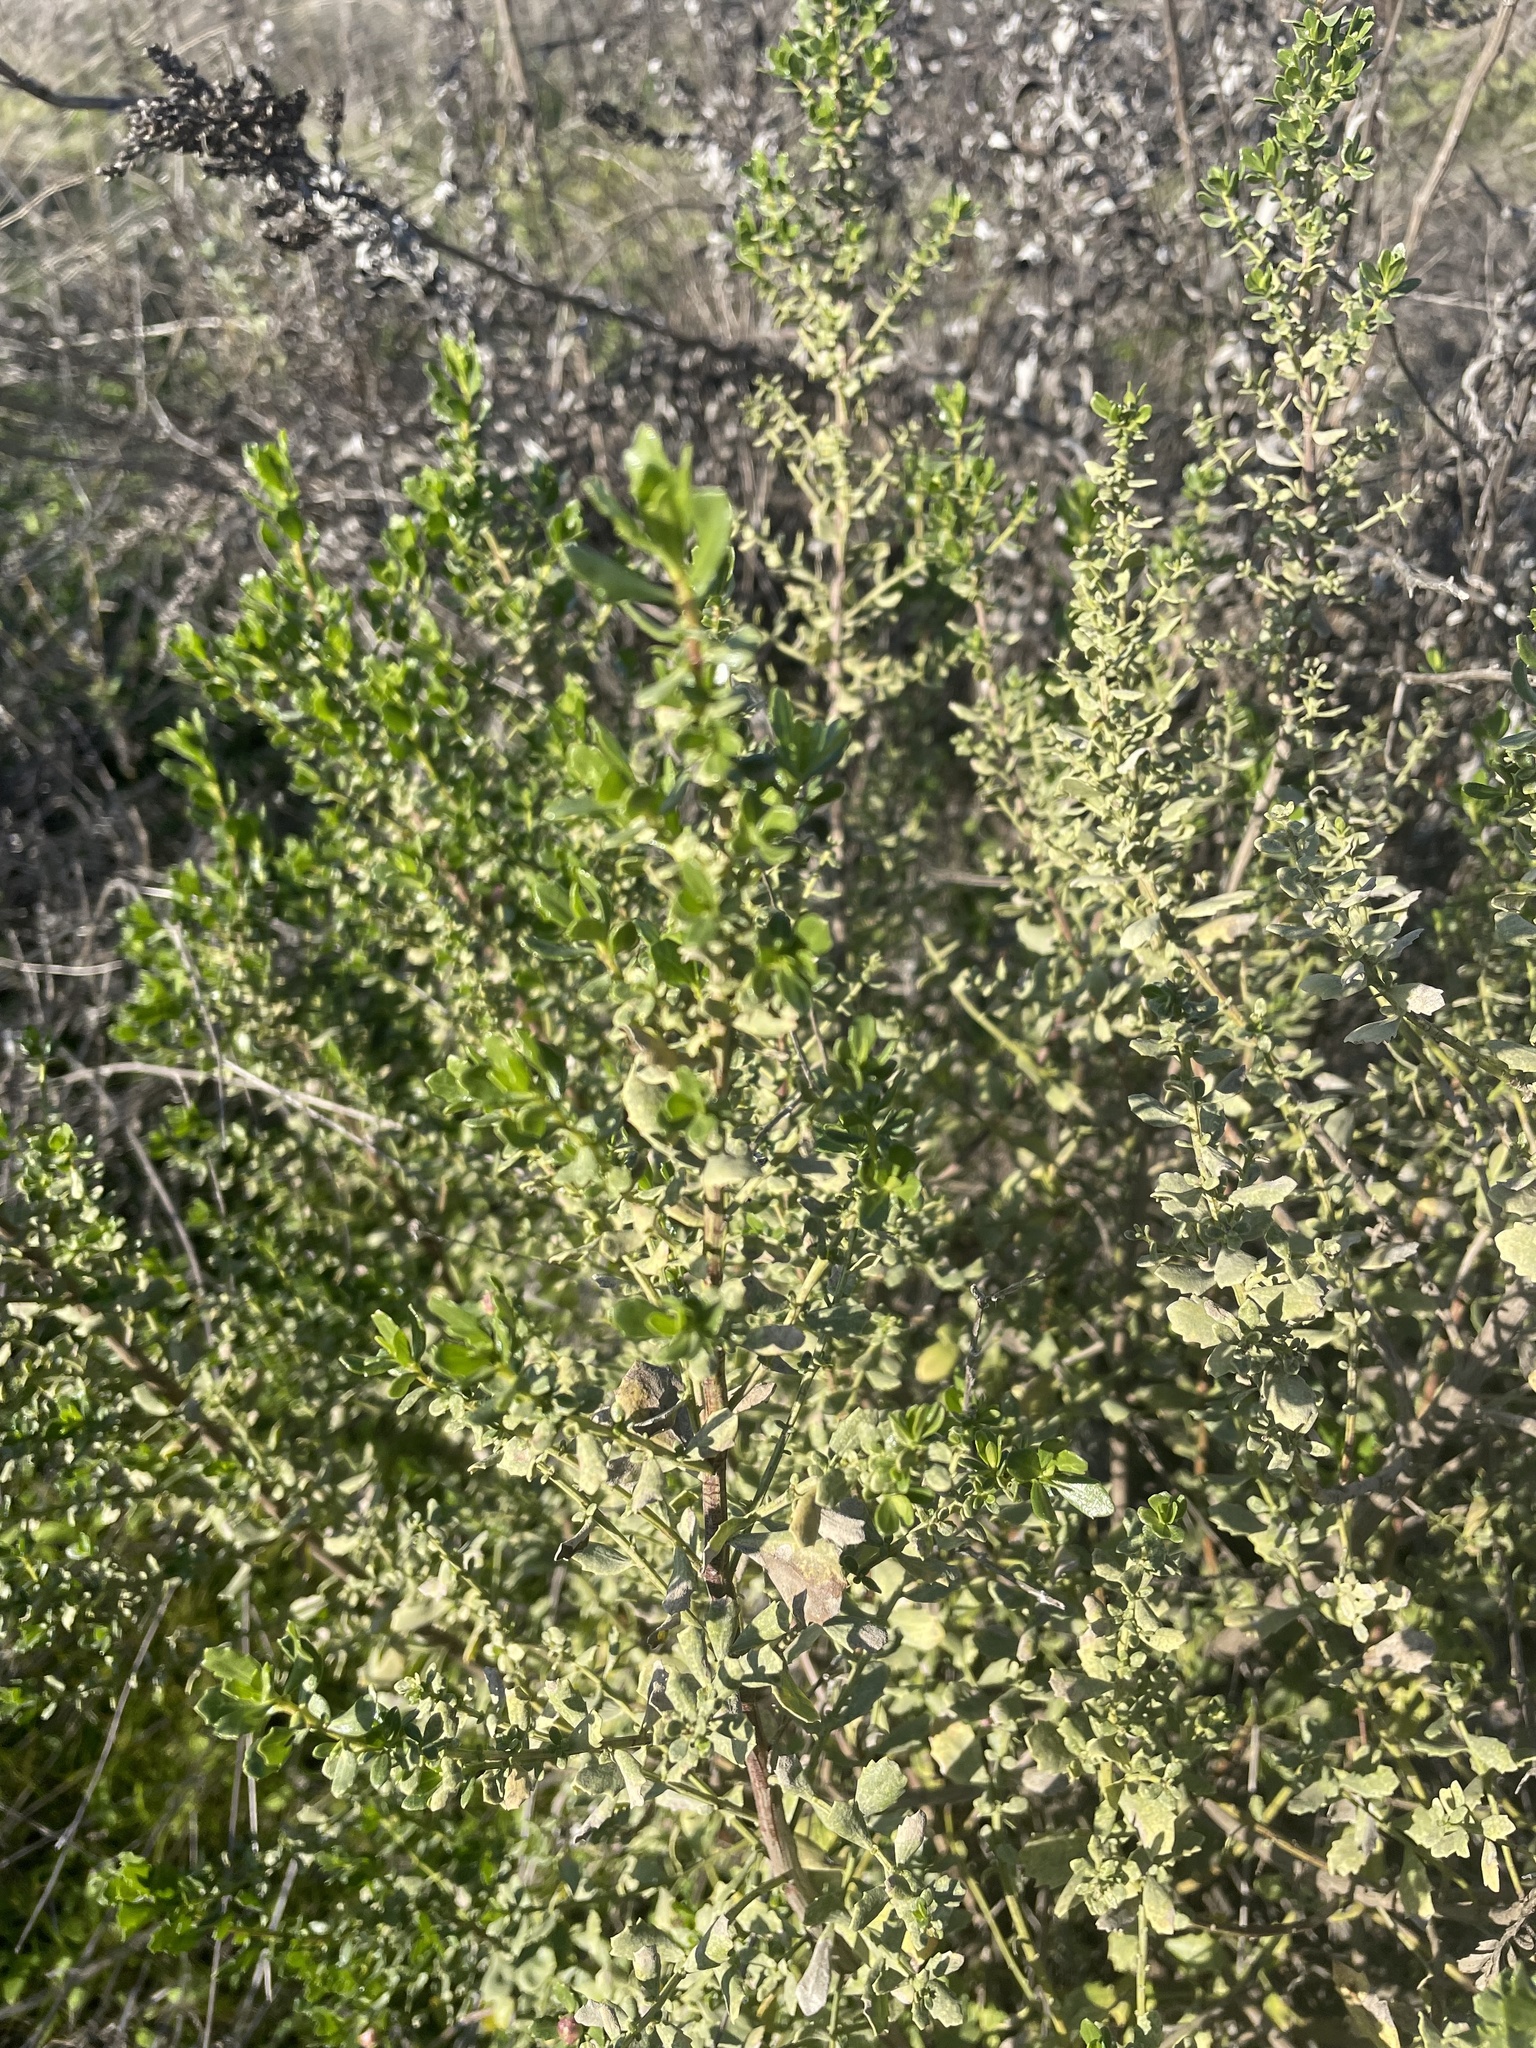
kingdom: Plantae
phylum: Tracheophyta
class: Magnoliopsida
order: Asterales
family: Asteraceae
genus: Baccharis
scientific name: Baccharis pilularis
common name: Coyotebrush
